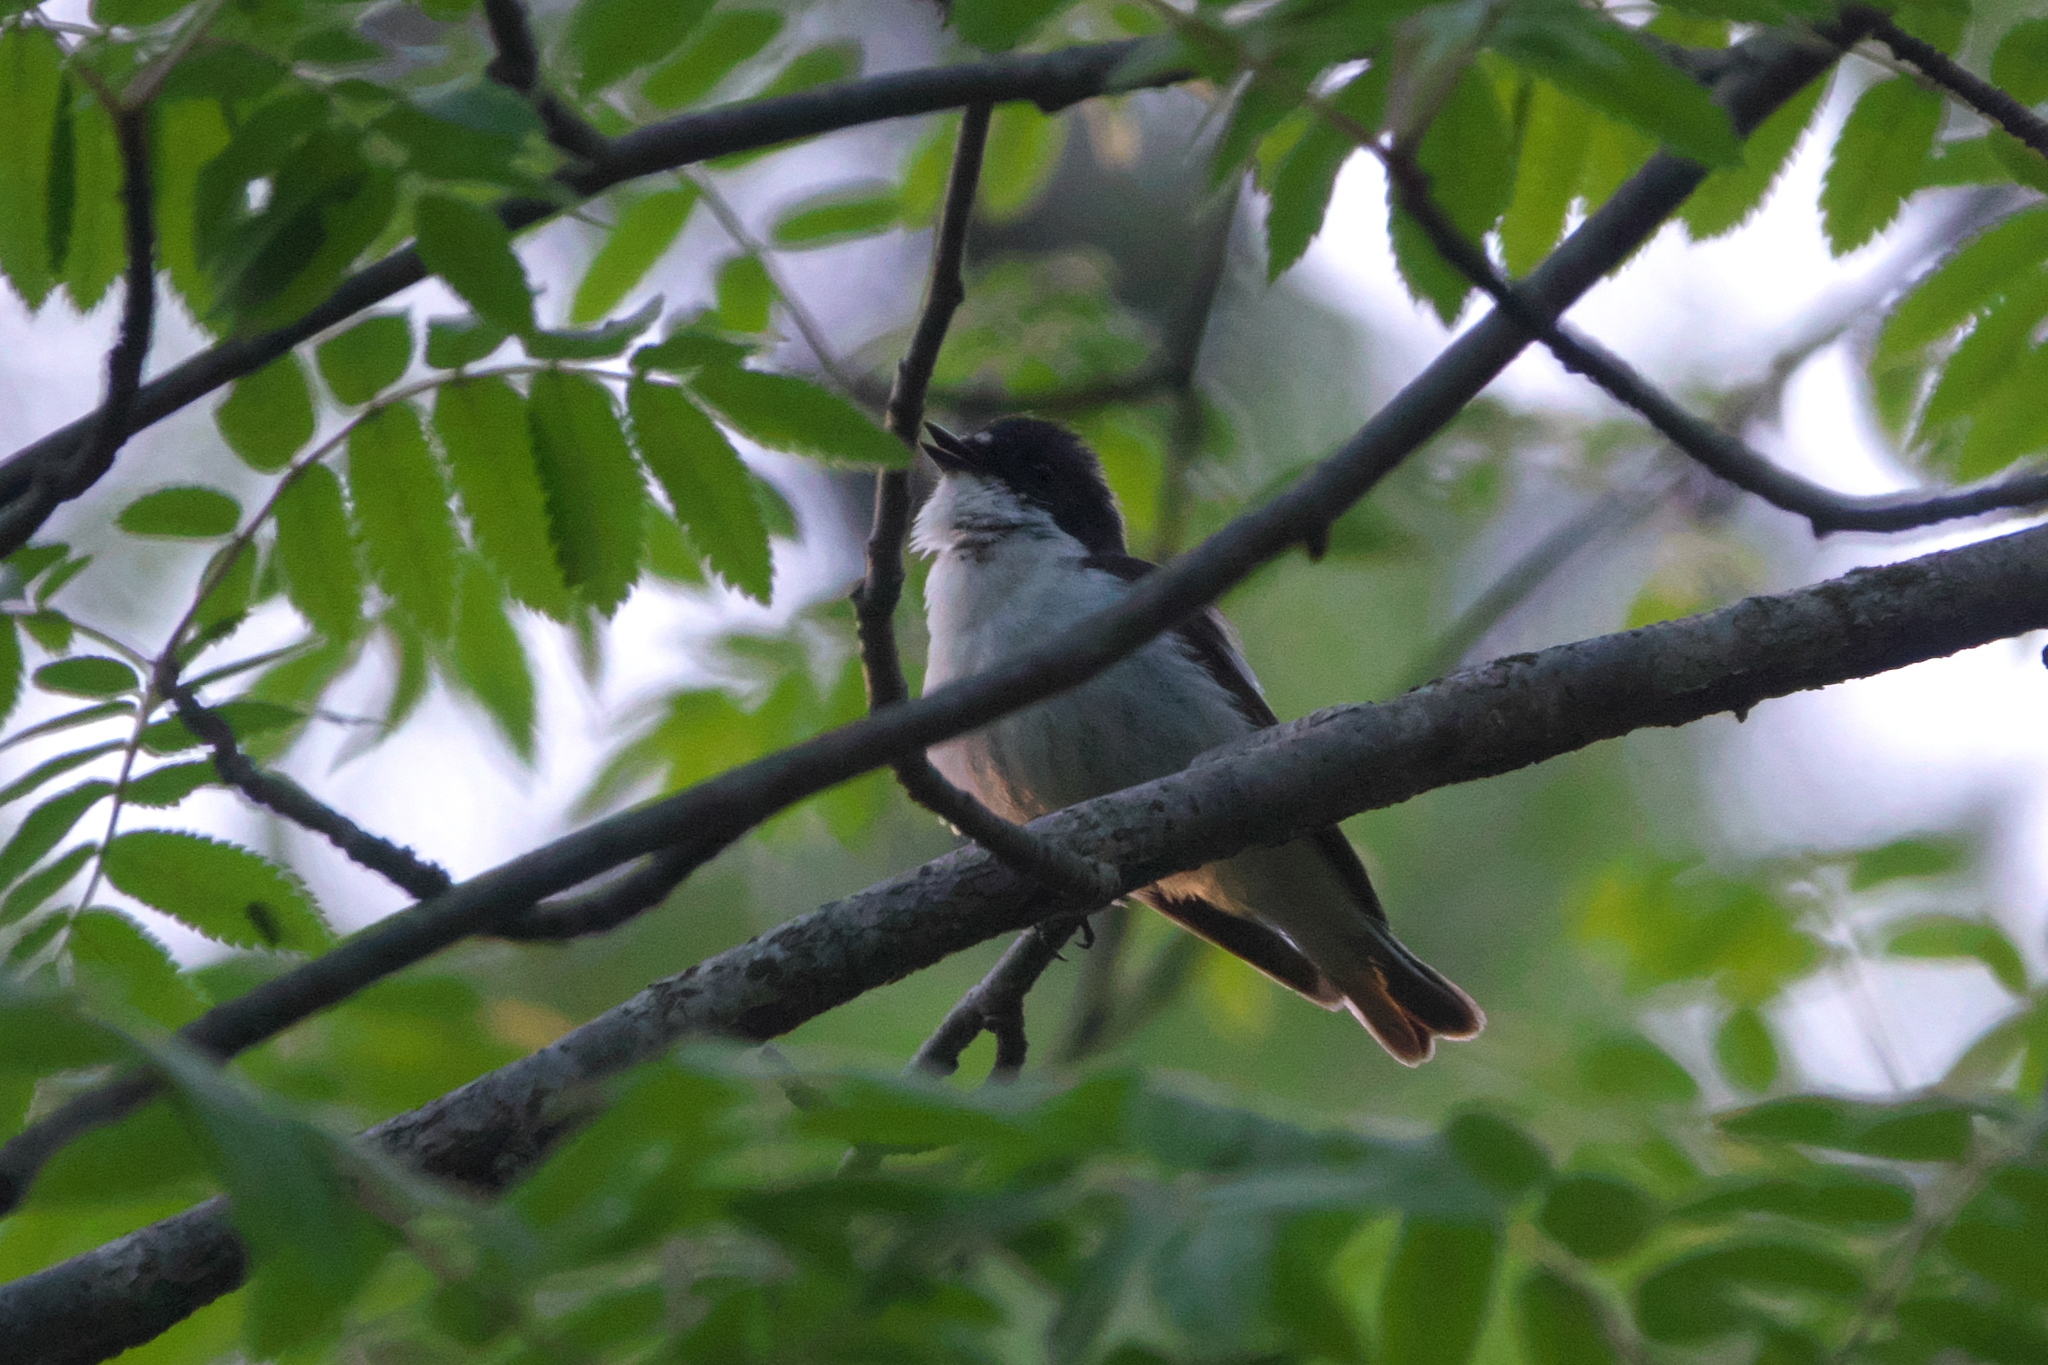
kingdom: Animalia
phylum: Chordata
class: Aves
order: Passeriformes
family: Muscicapidae
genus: Ficedula
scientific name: Ficedula hypoleuca
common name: European pied flycatcher
